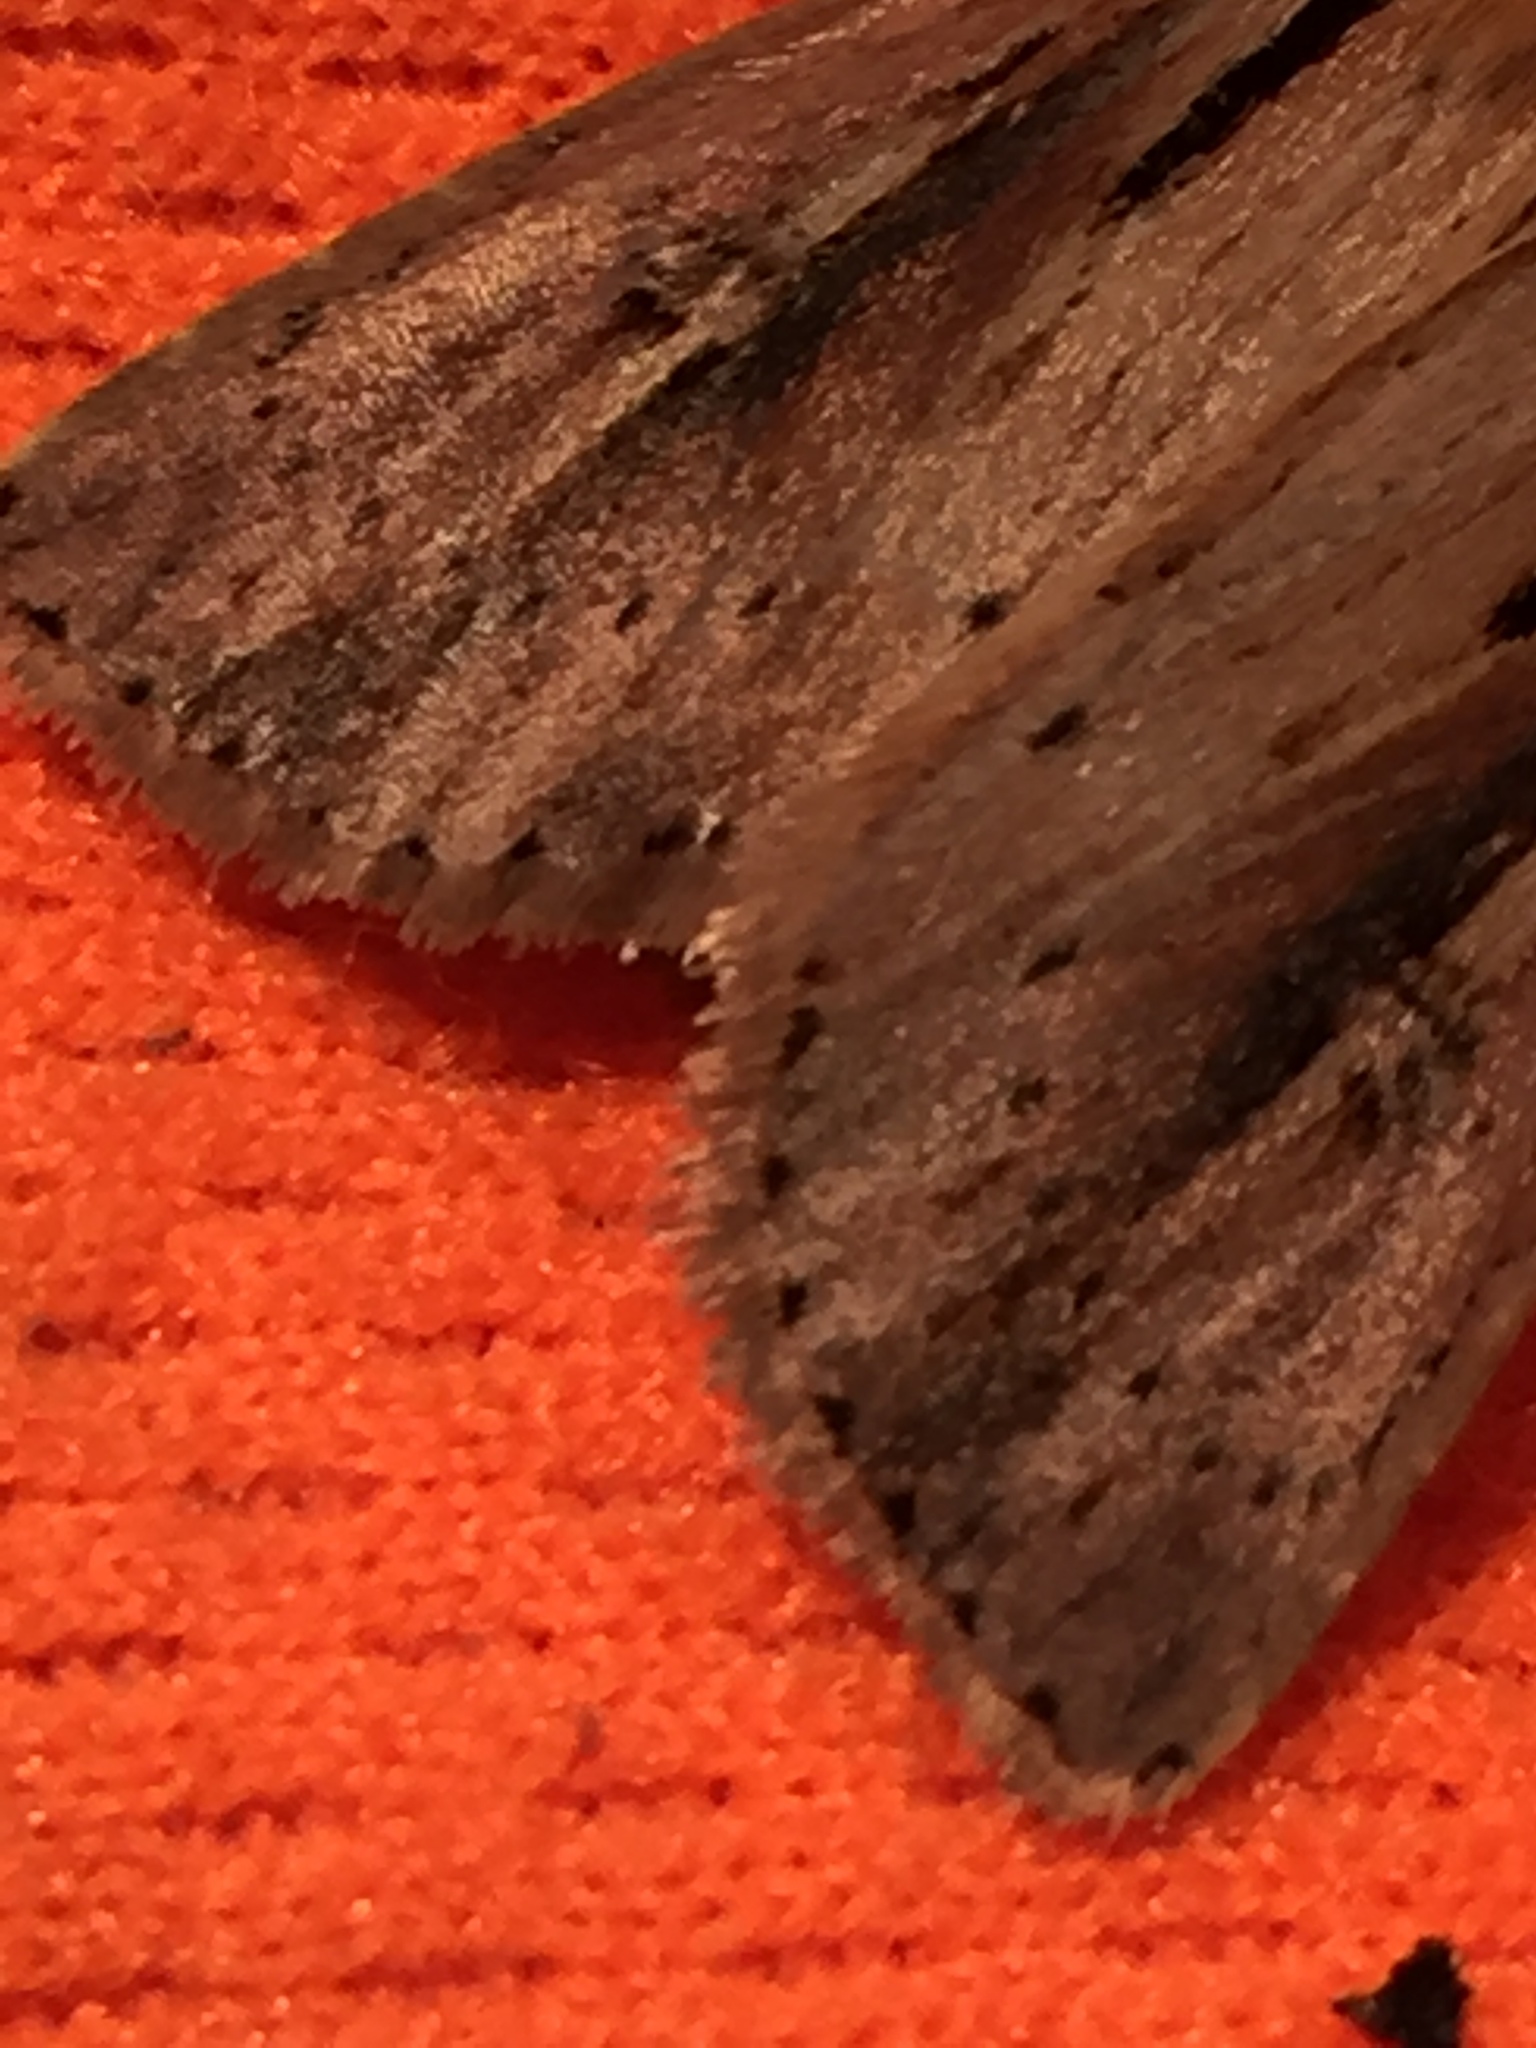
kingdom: Animalia
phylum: Arthropoda
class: Insecta
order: Lepidoptera
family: Noctuidae
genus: Ichneutica
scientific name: Ichneutica propria
